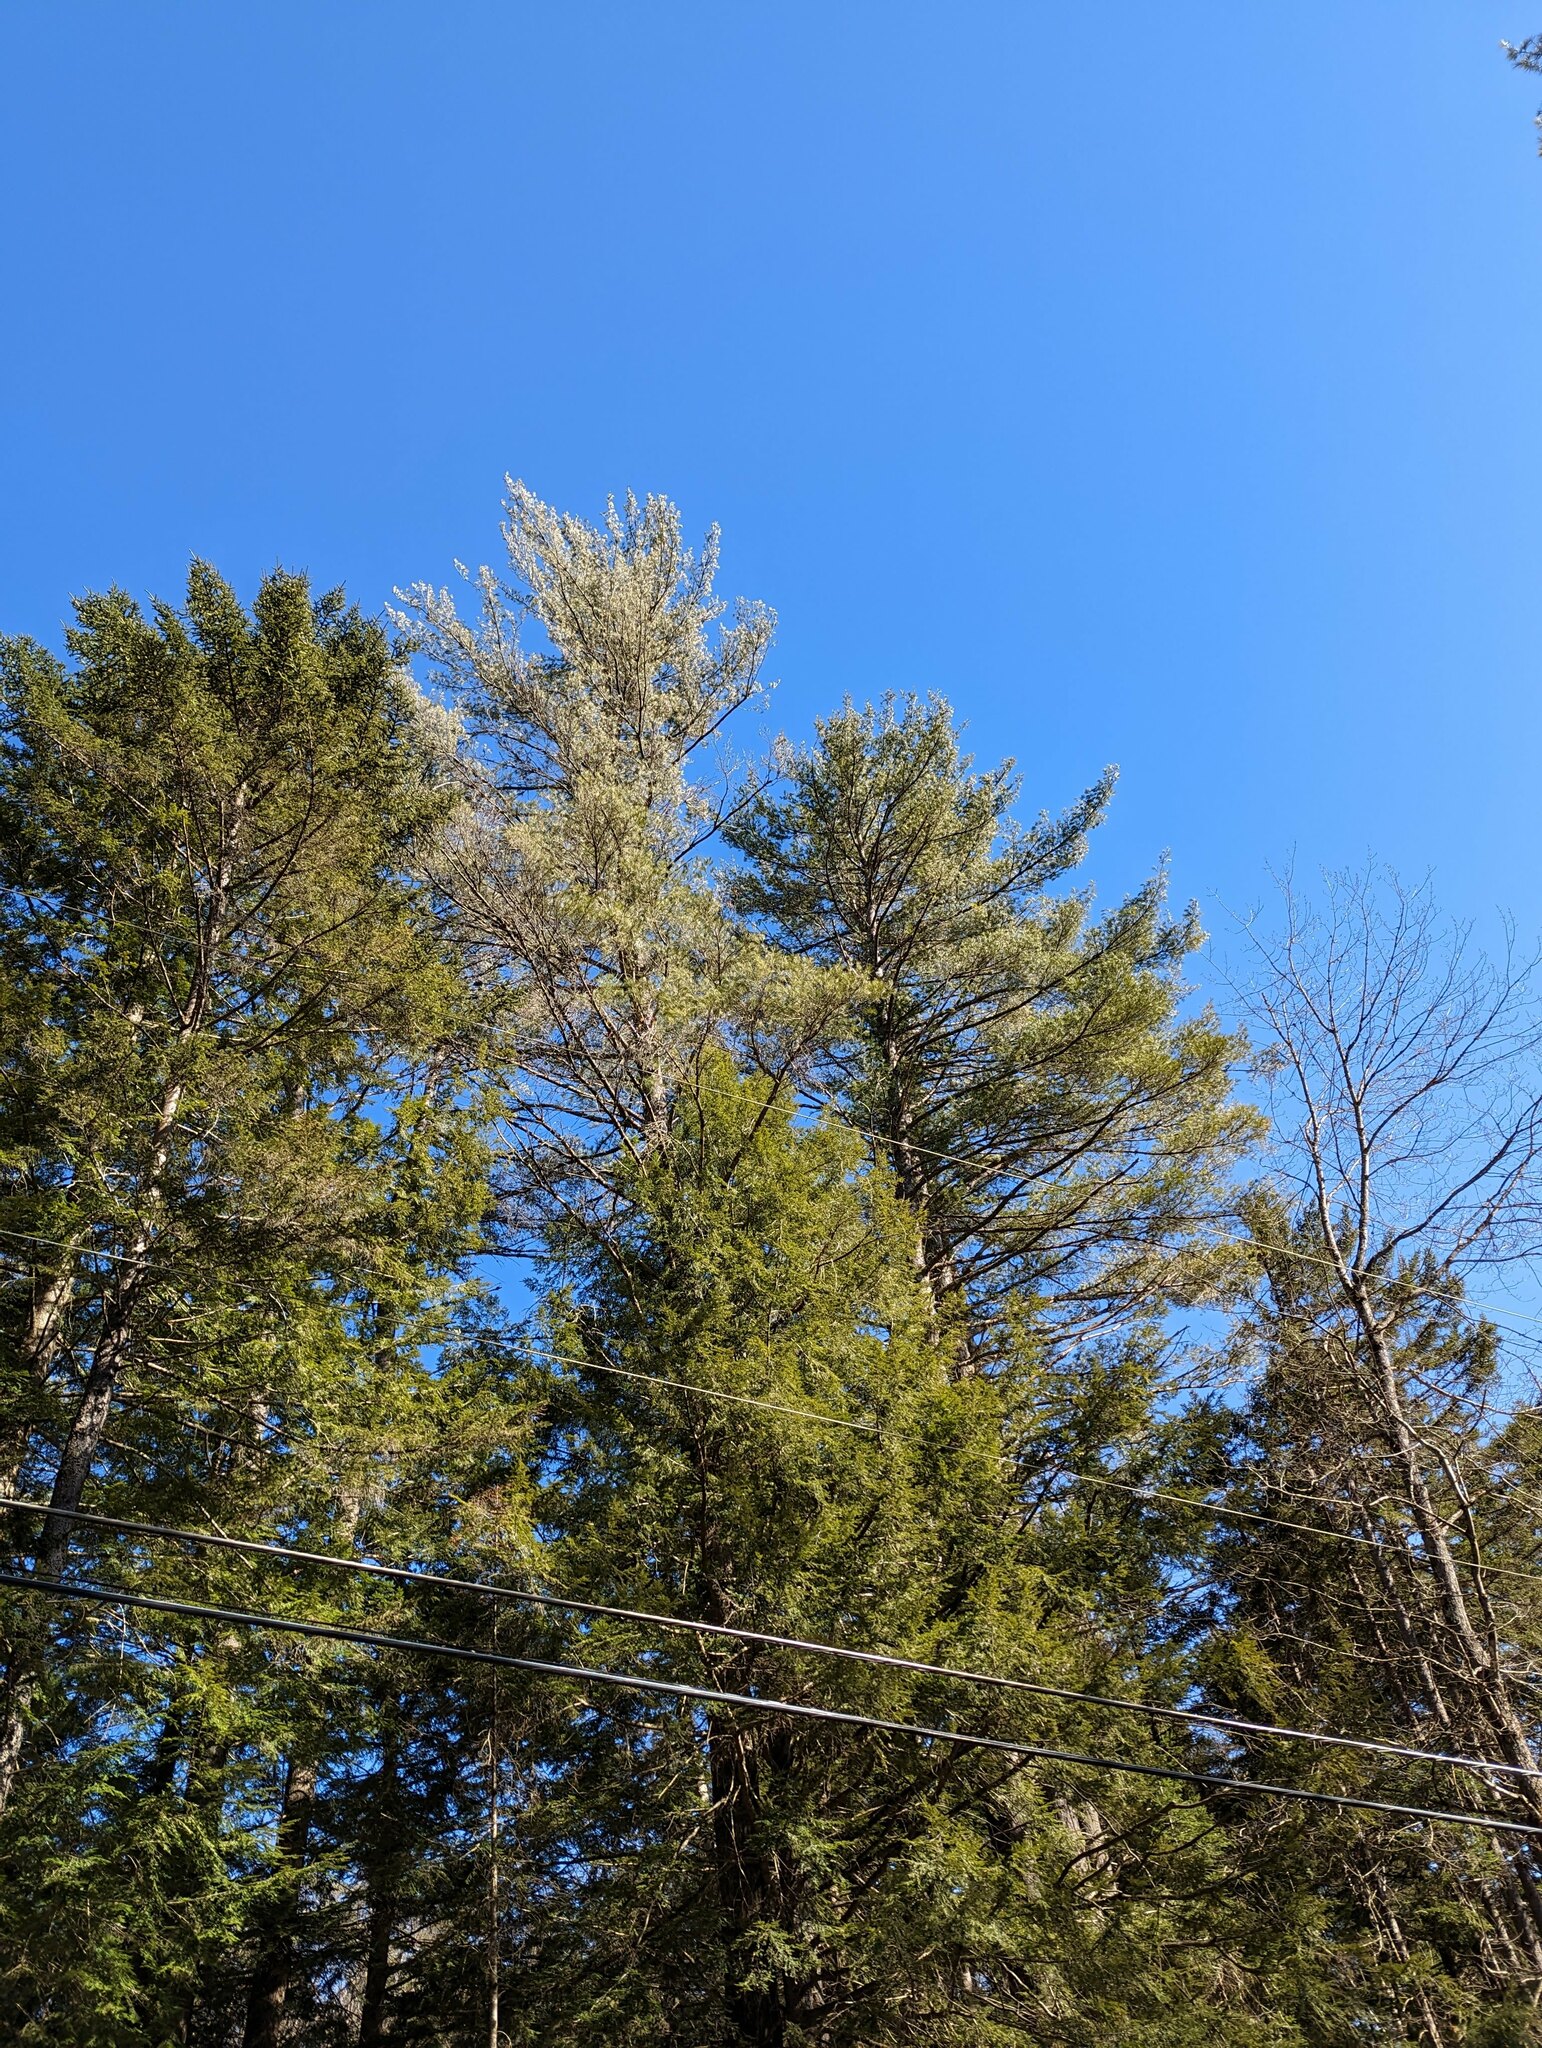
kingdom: Plantae
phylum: Tracheophyta
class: Pinopsida
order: Pinales
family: Pinaceae
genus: Pinus
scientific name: Pinus strobus
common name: Weymouth pine
